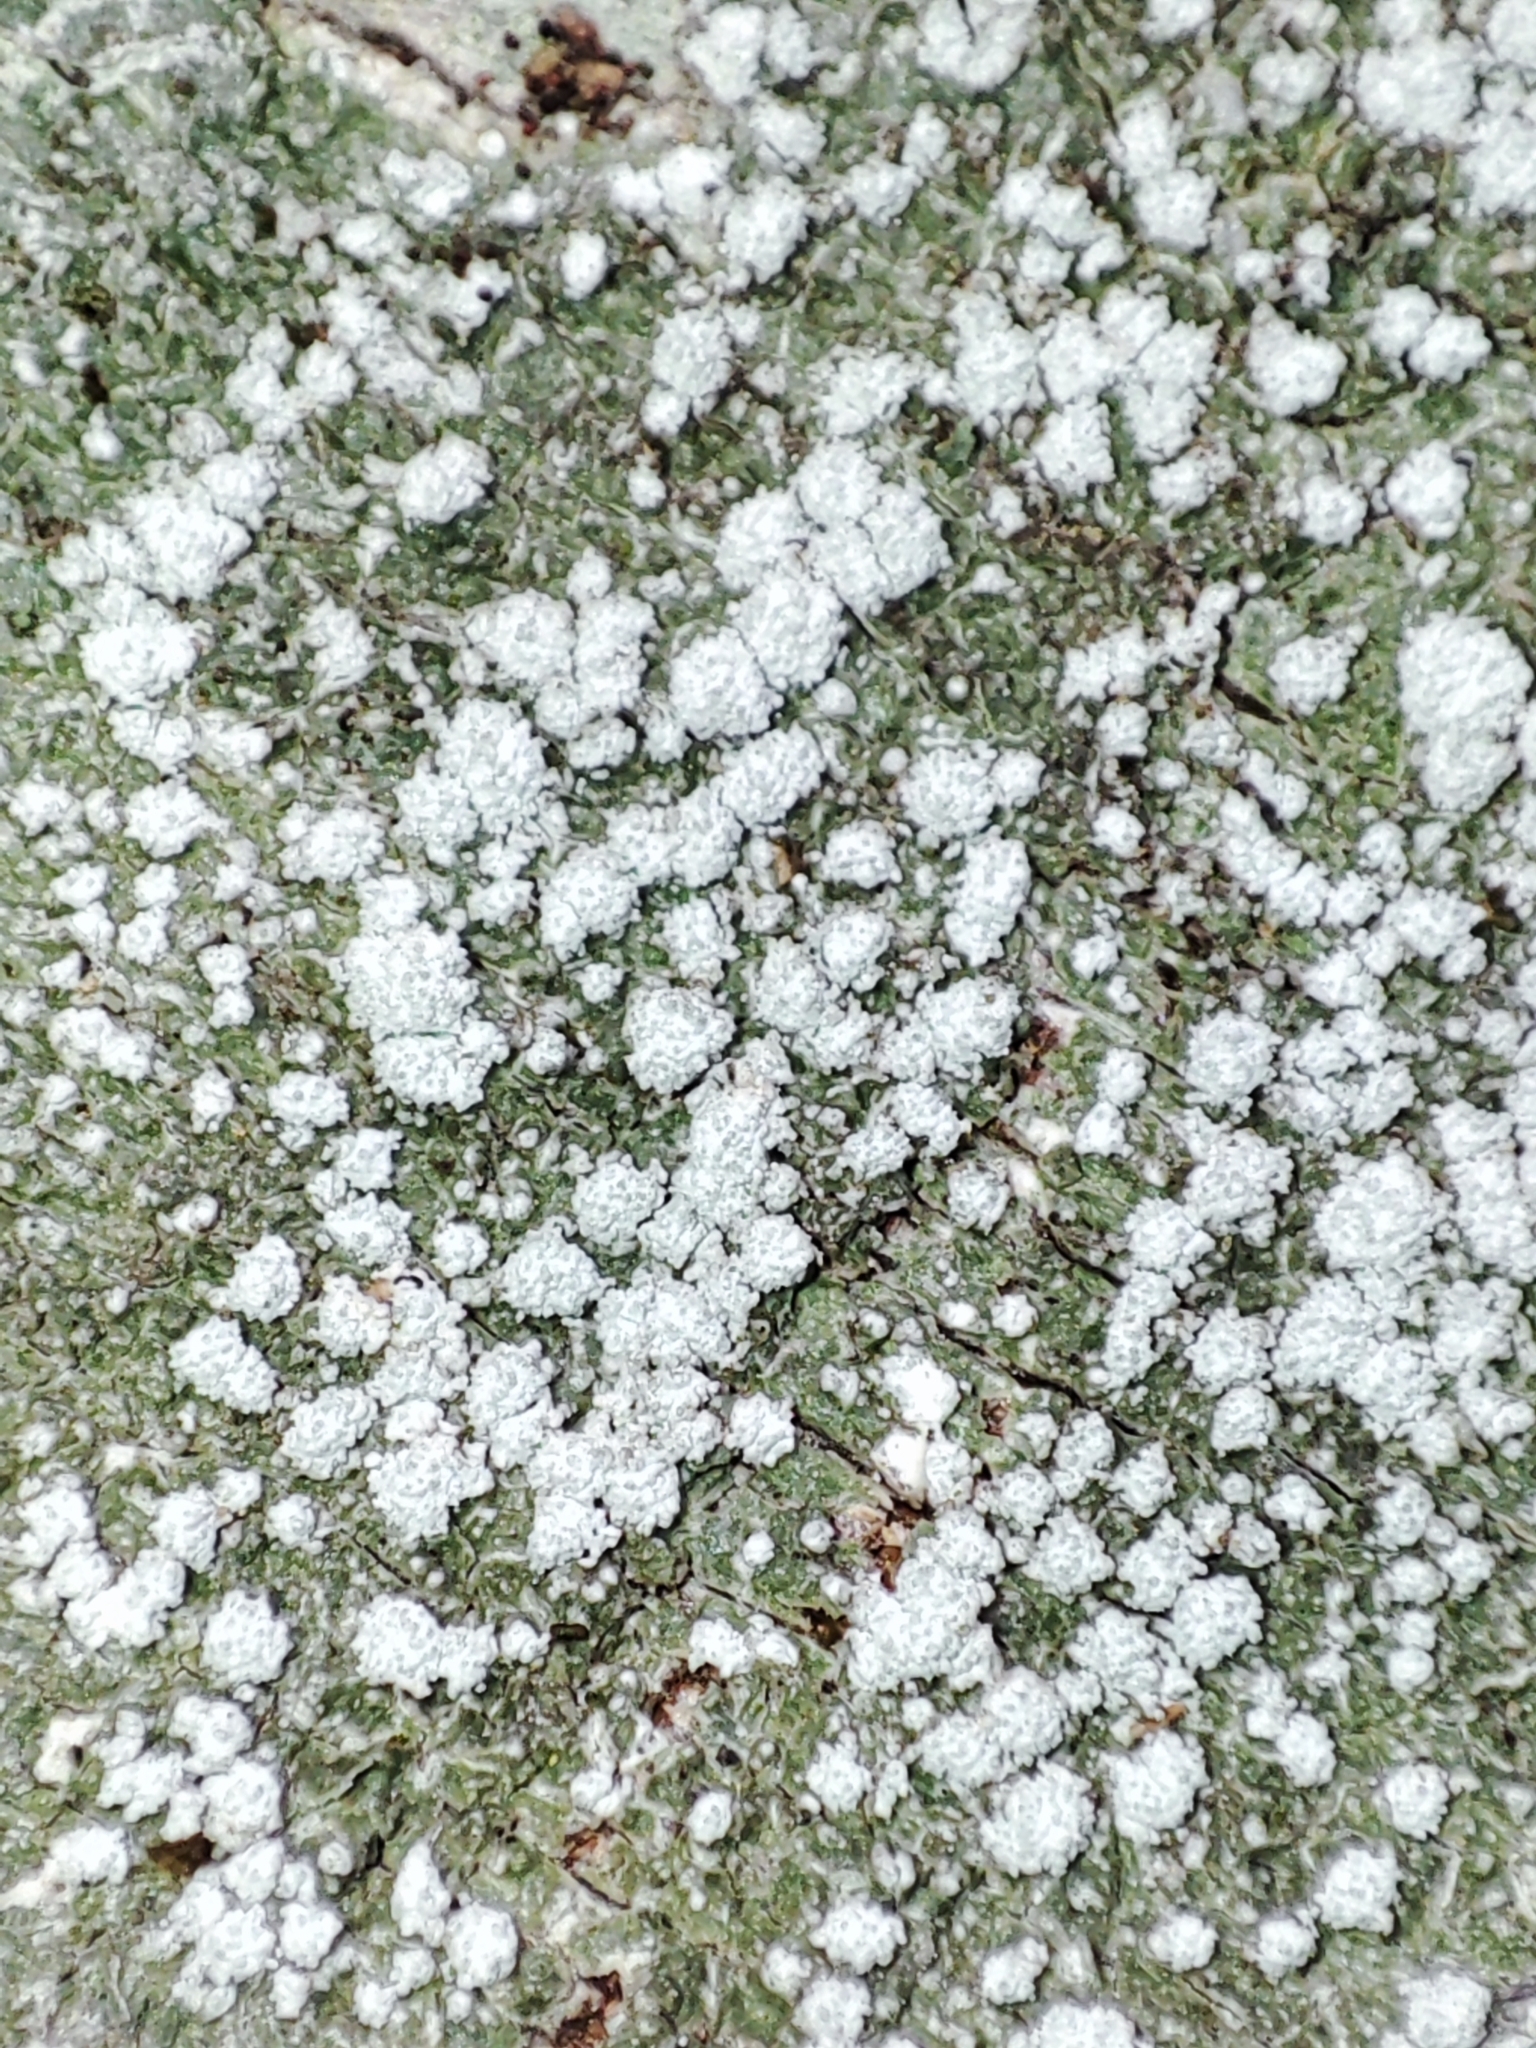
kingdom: Fungi
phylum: Ascomycota
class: Lecanoromycetes
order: Pertusariales
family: Pertusariaceae
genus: Lepra
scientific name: Lepra amara
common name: Bitter wart lichen
